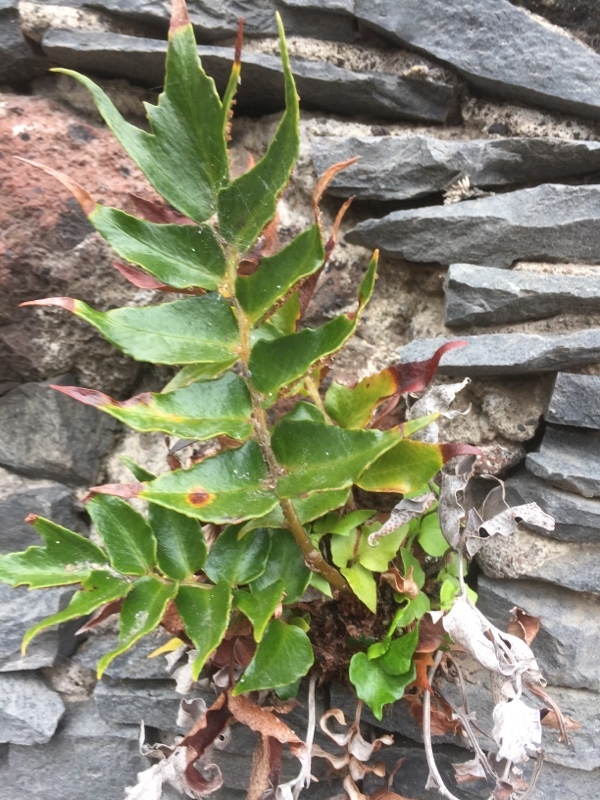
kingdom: Plantae
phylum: Tracheophyta
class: Polypodiopsida
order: Polypodiales
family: Dryopteridaceae
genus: Cyrtomium
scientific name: Cyrtomium falcatum
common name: House holly-fern
